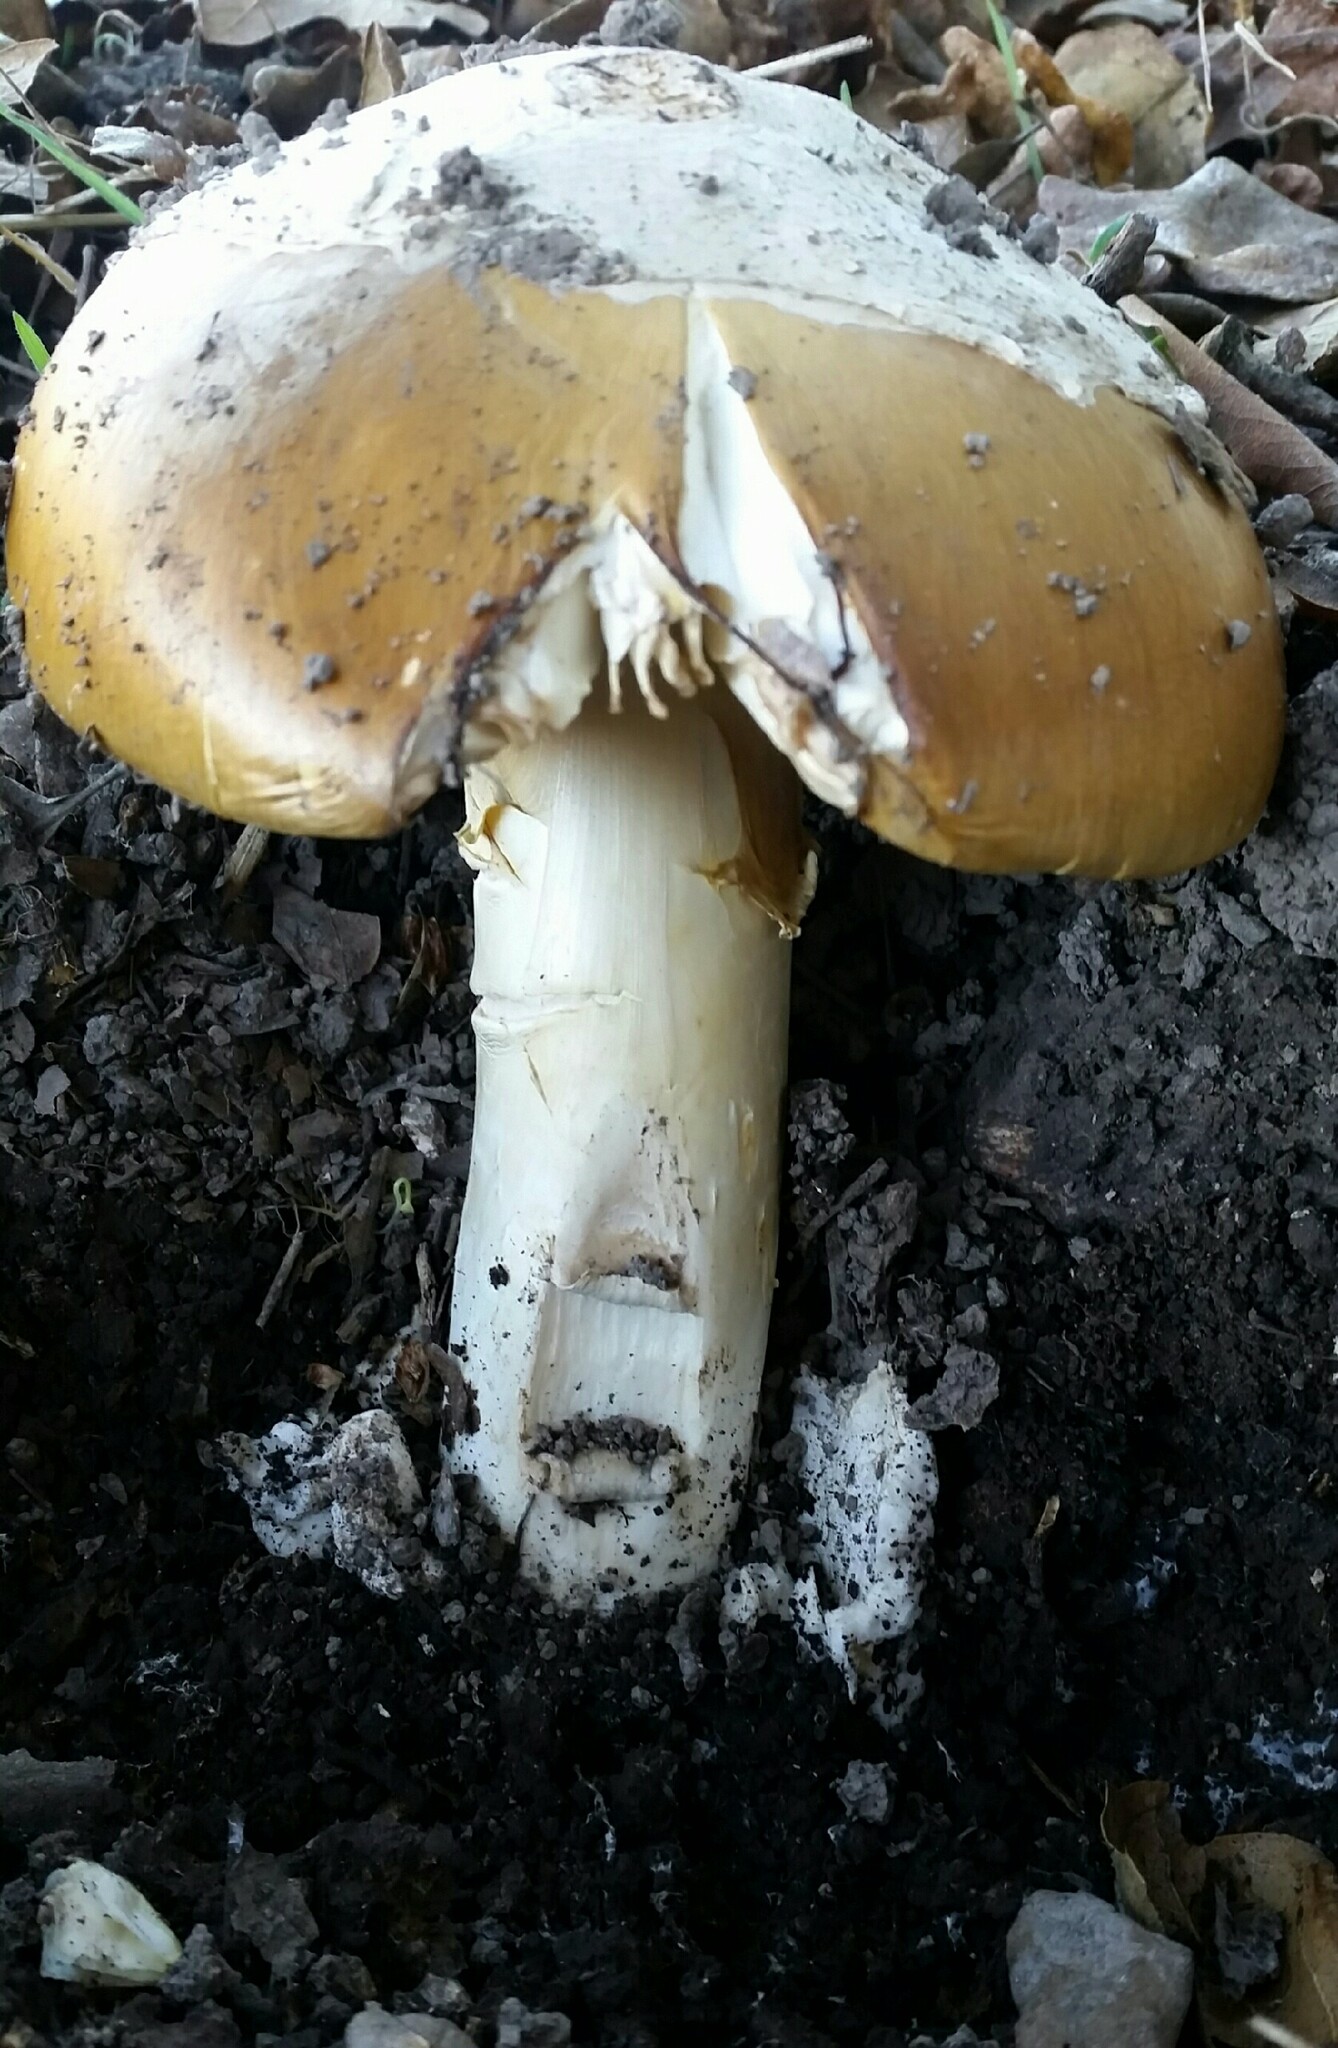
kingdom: Fungi
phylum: Basidiomycota
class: Agaricomycetes
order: Agaricales
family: Amanitaceae
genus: Amanita
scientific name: Amanita calyptroderma
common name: Coccora
